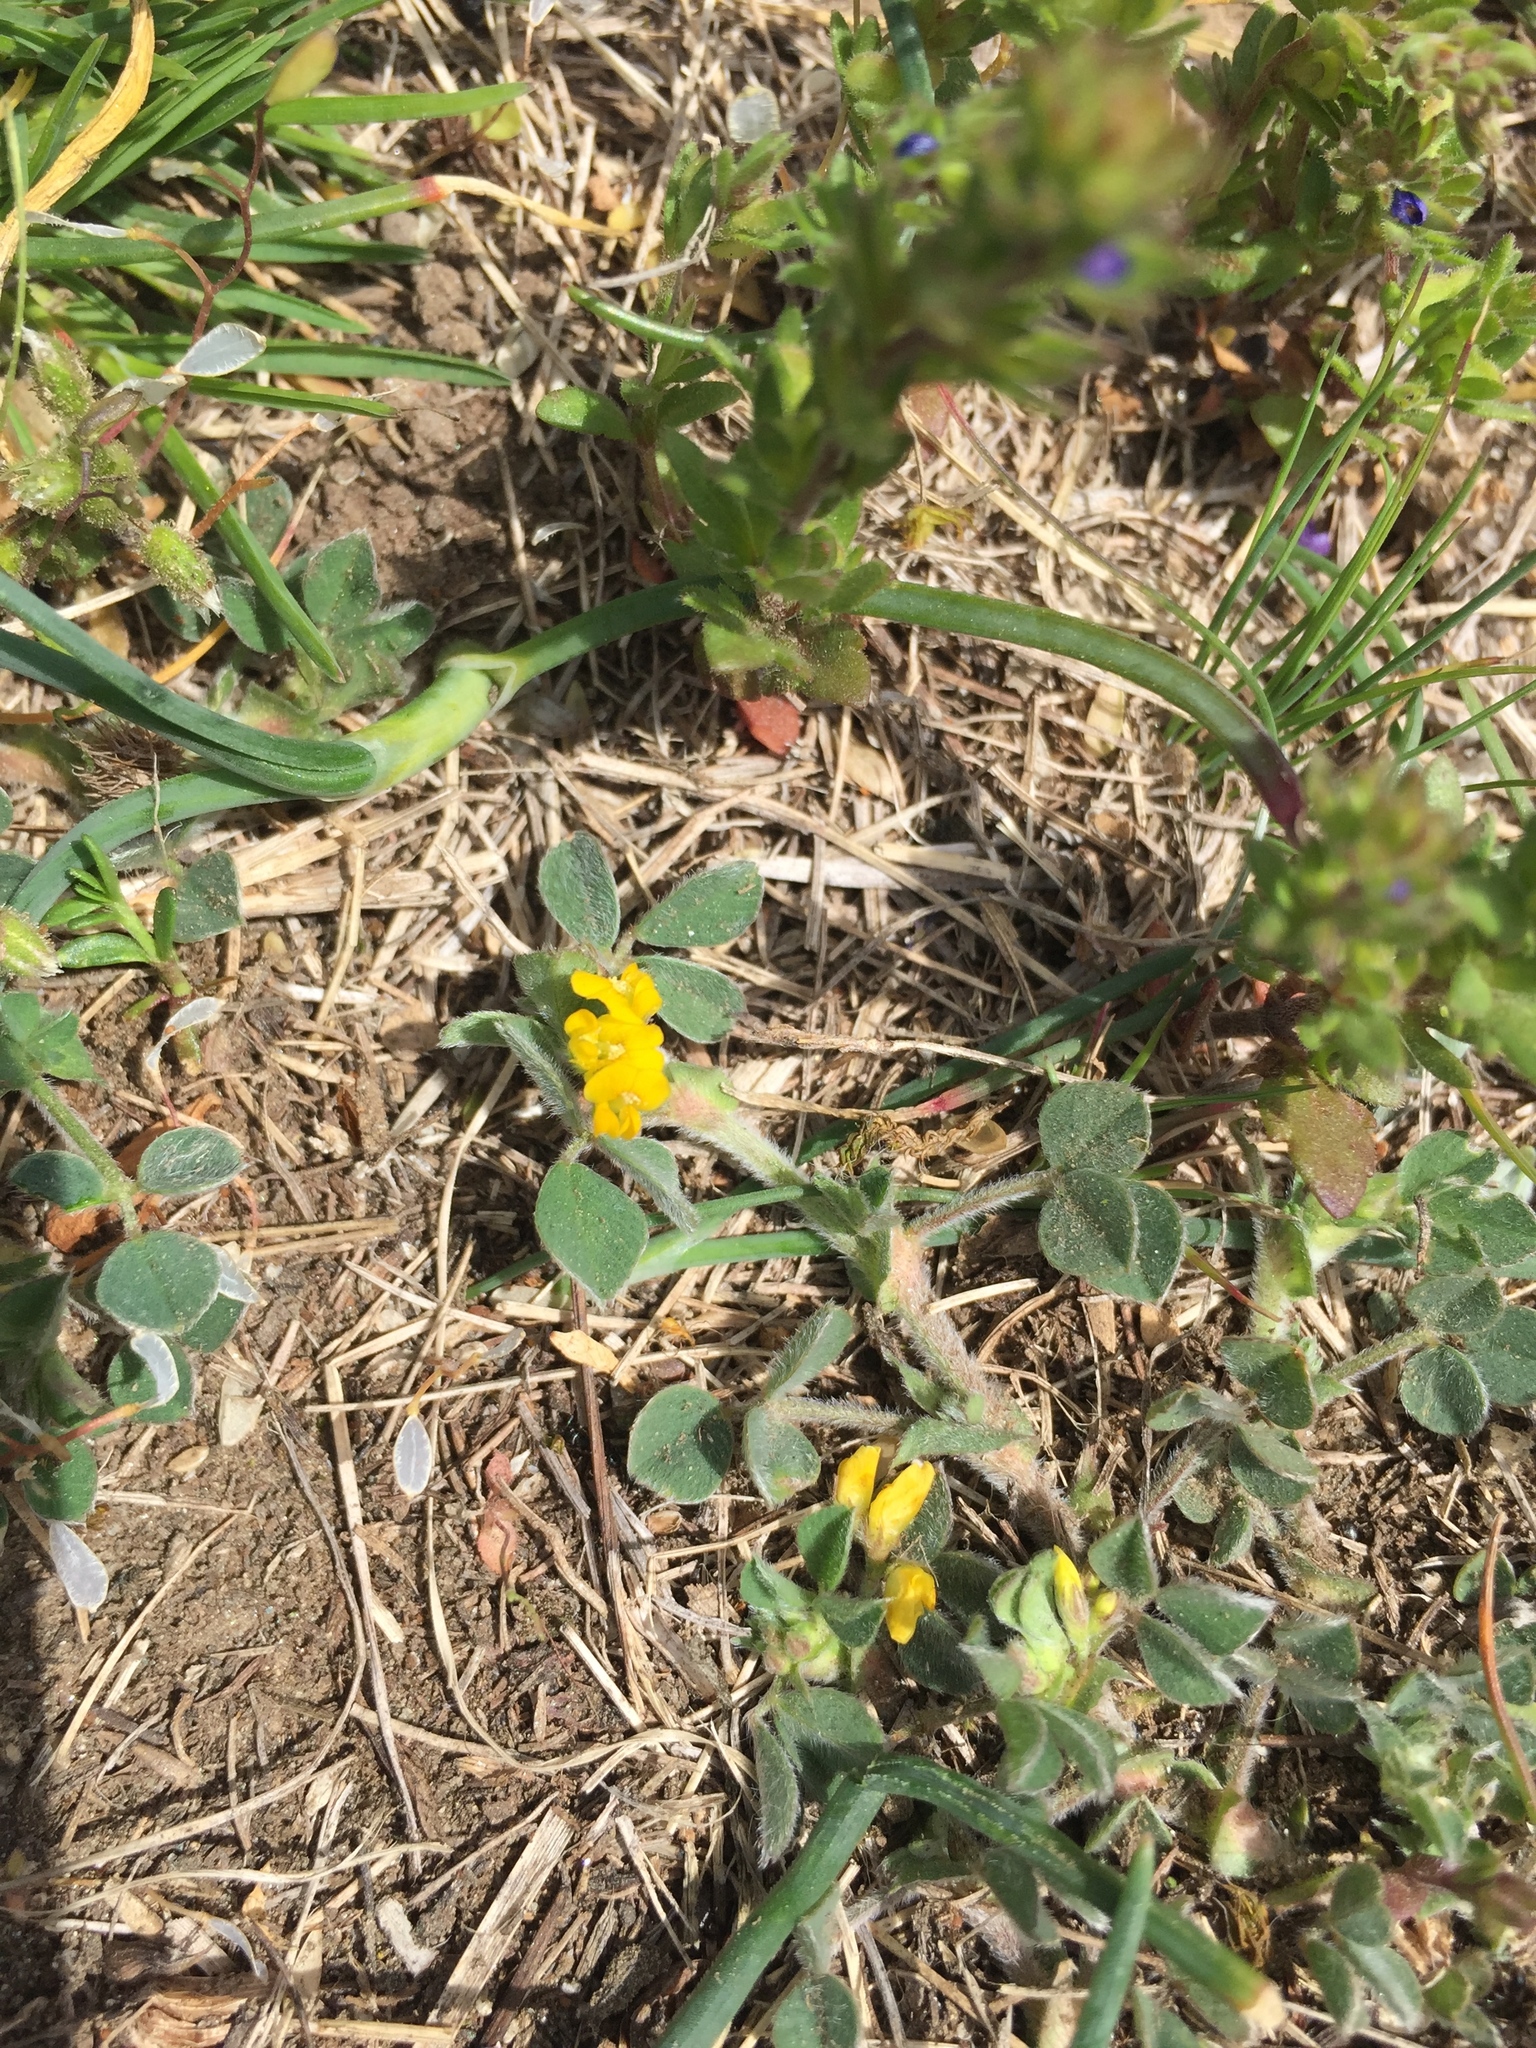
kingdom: Plantae
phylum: Tracheophyta
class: Magnoliopsida
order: Fabales
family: Fabaceae
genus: Medicago
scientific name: Medicago minima
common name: Little bur-clover
